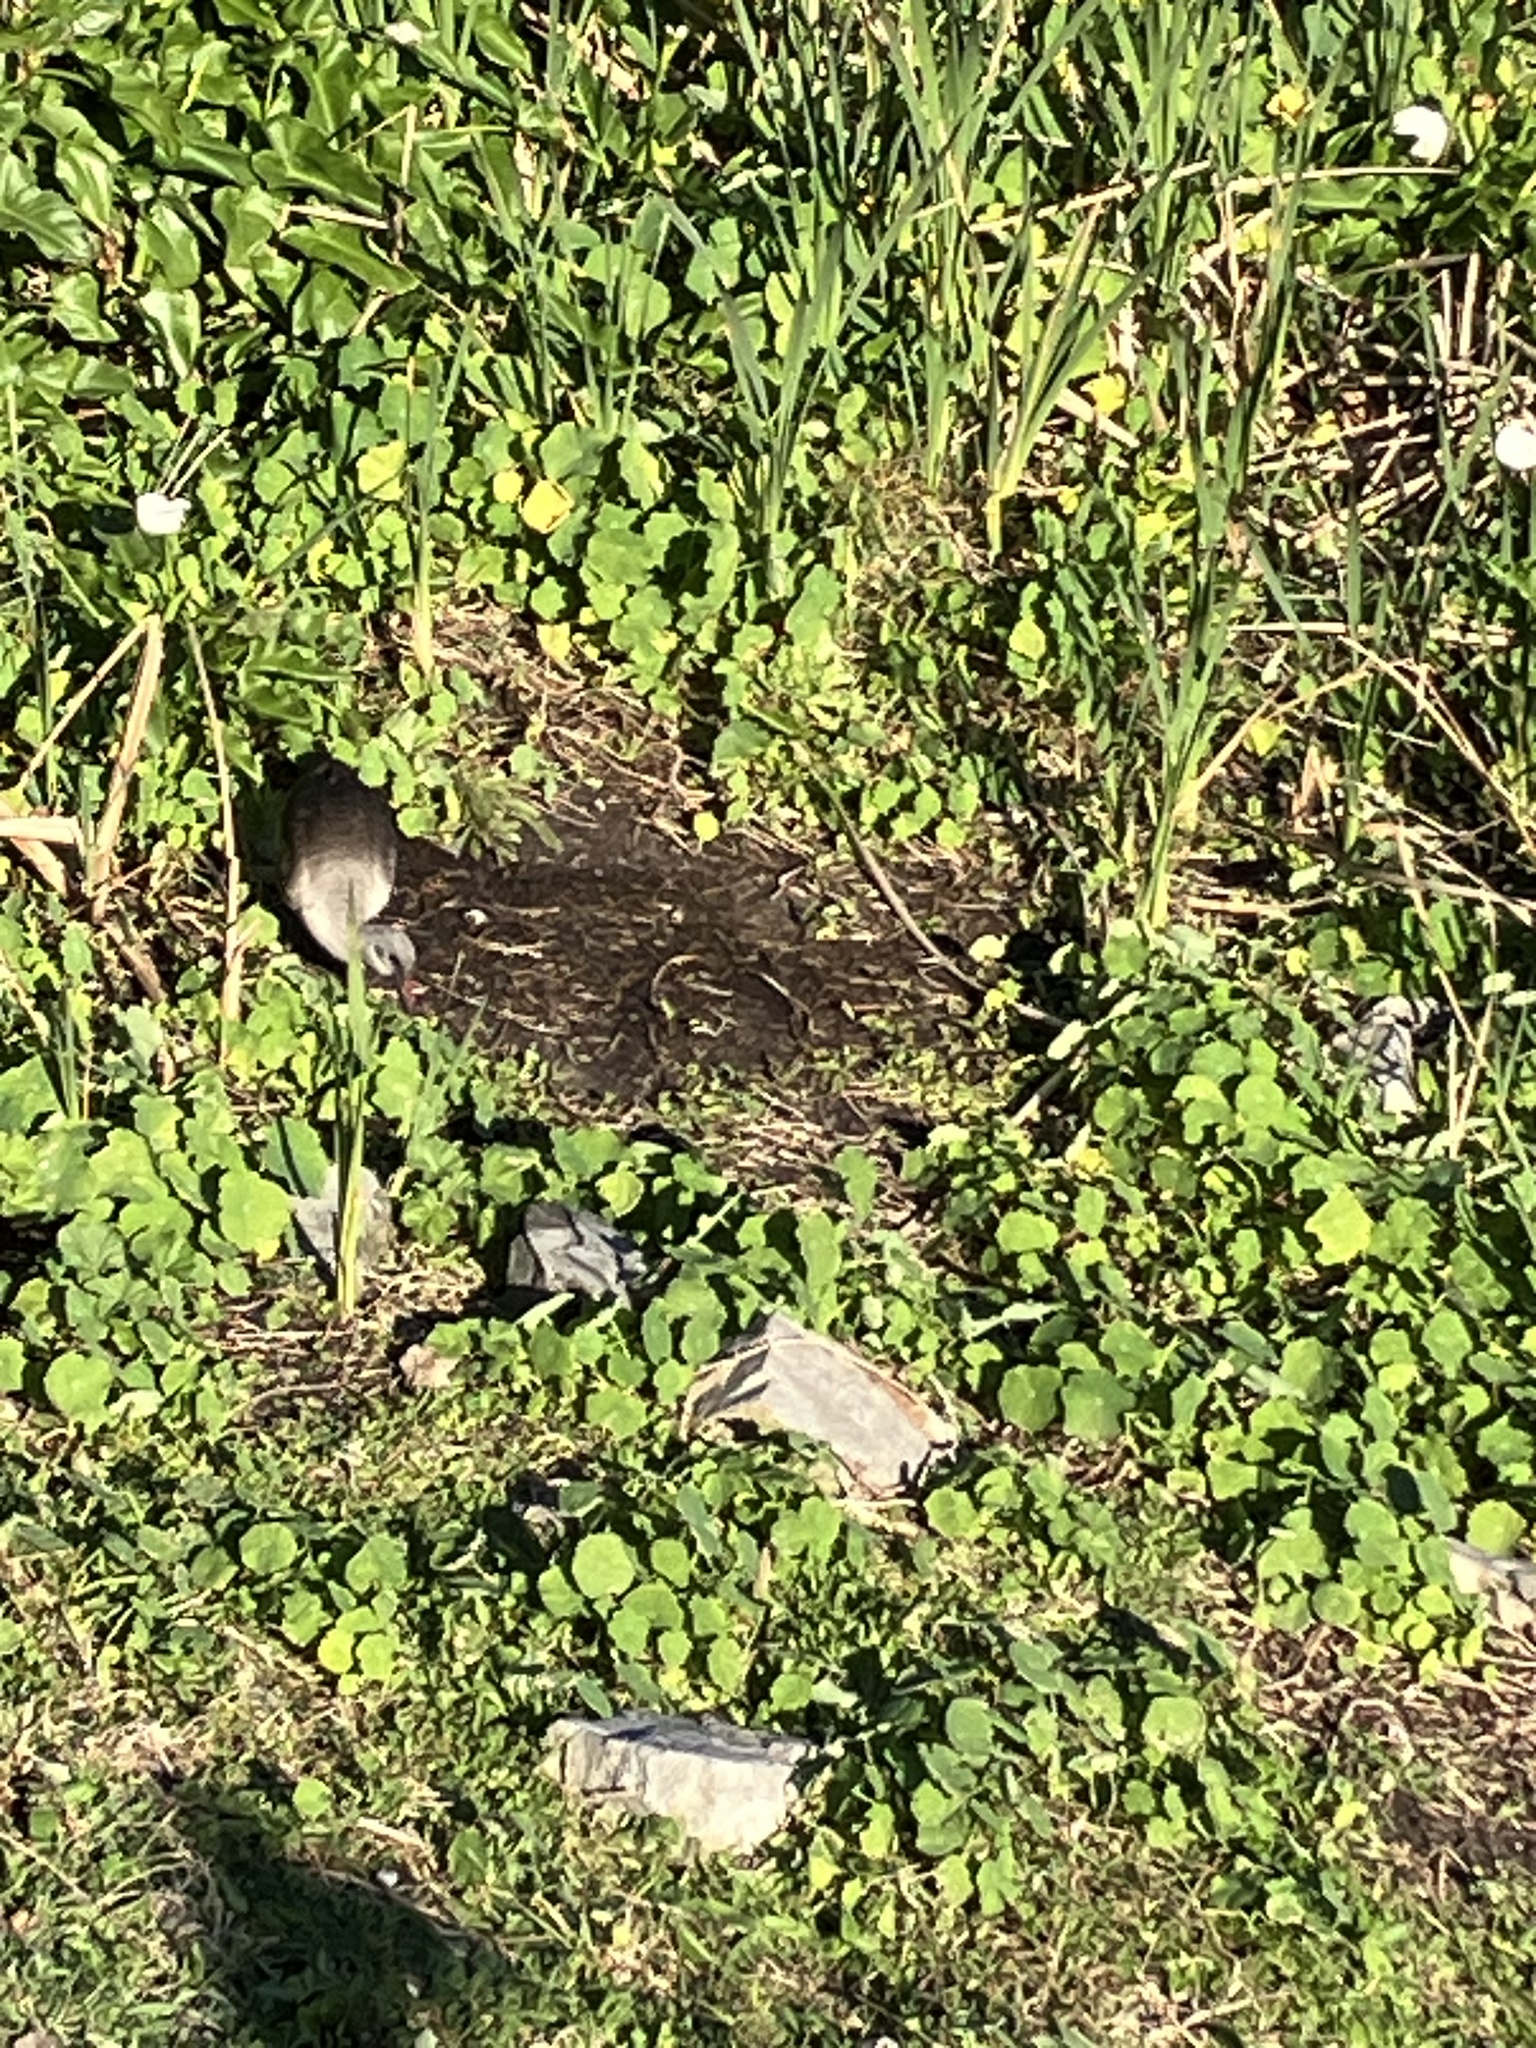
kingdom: Animalia
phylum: Chordata
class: Aves
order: Pelecaniformes
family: Threskiornithidae
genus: Bostrychia
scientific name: Bostrychia hagedash
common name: Hadada ibis
